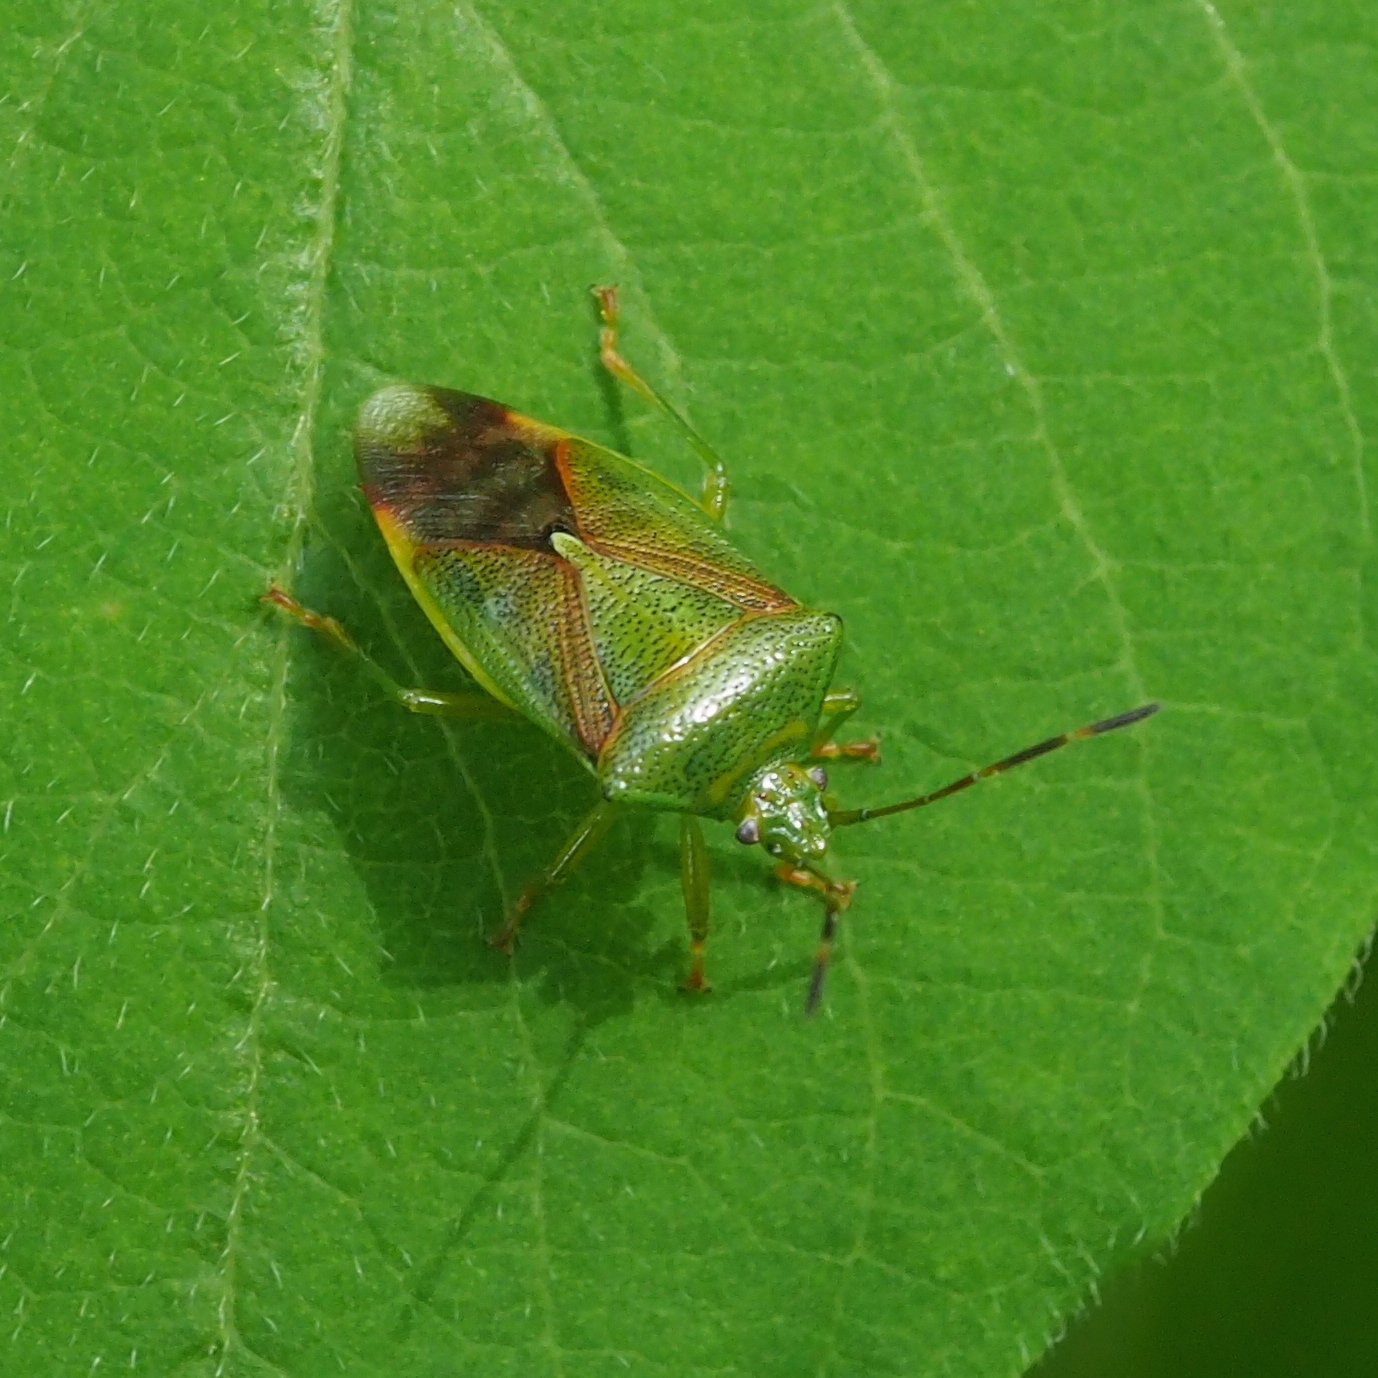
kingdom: Animalia
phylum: Arthropoda
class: Insecta
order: Hemiptera
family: Acanthosomatidae
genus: Elasmostethus
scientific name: Elasmostethus minor
